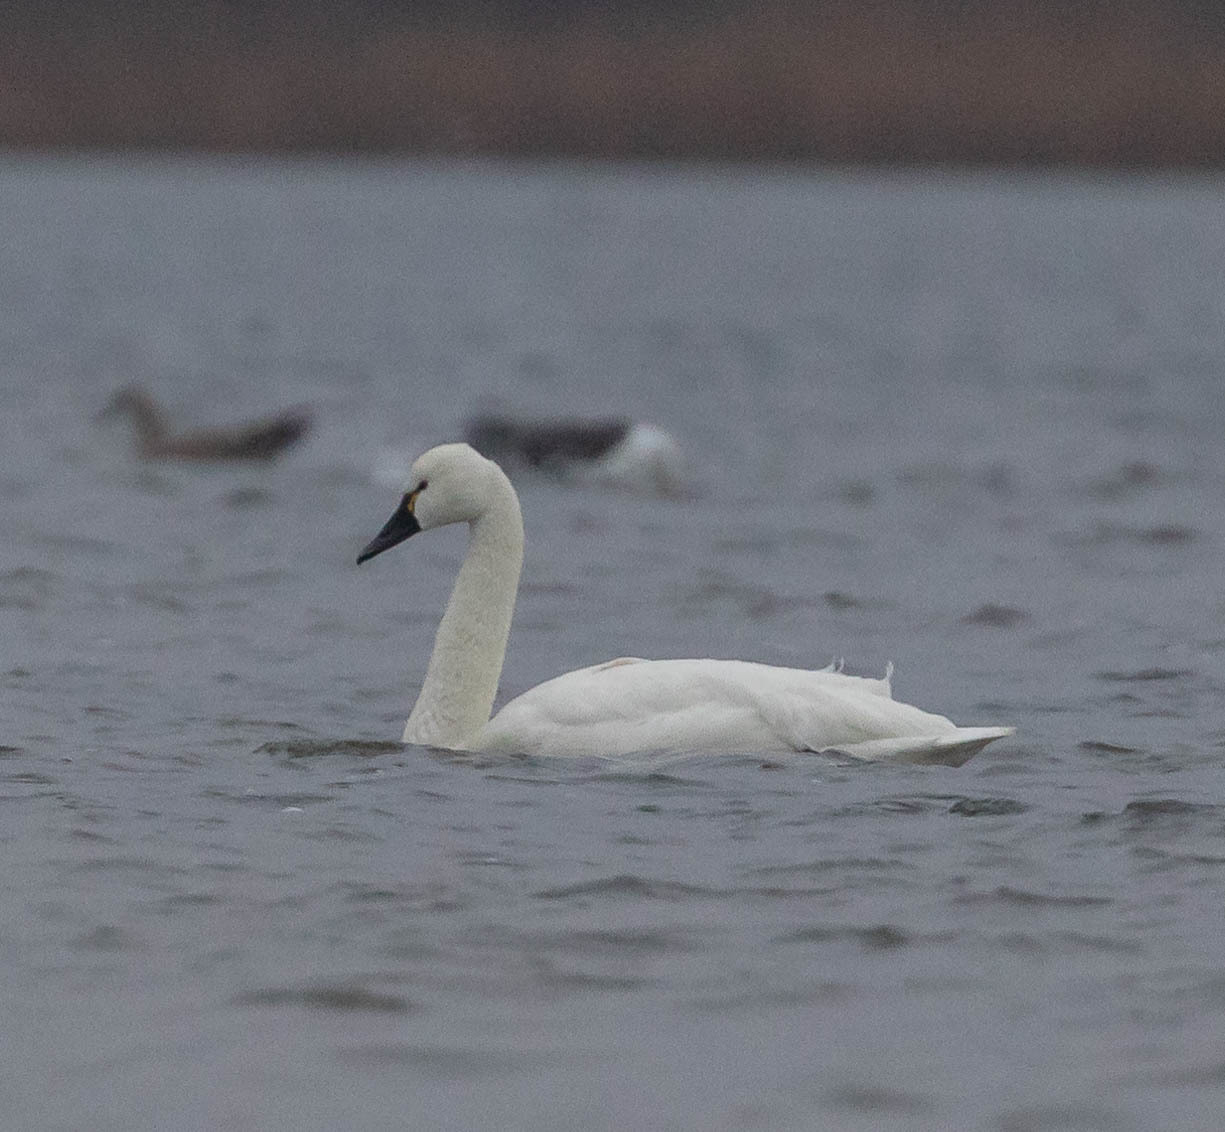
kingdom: Animalia
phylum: Chordata
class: Aves
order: Anseriformes
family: Anatidae
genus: Cygnus
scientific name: Cygnus columbianus
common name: Tundra swan
